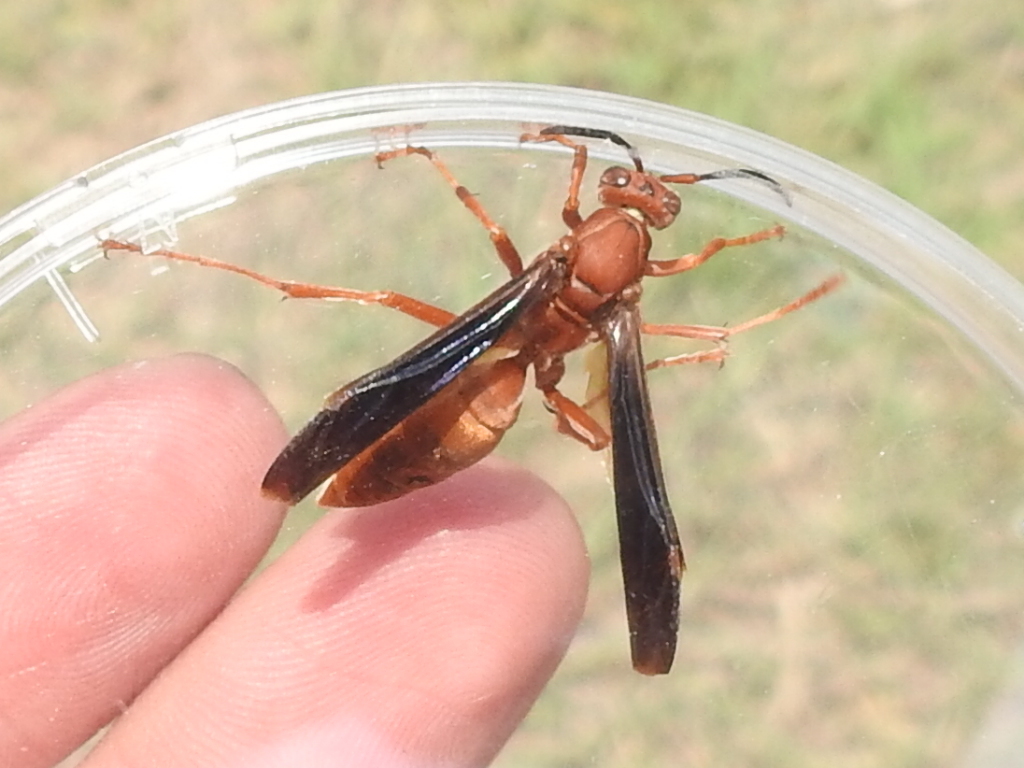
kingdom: Animalia
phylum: Arthropoda
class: Insecta
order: Hymenoptera
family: Vespidae
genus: Fuscopolistes
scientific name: Fuscopolistes
